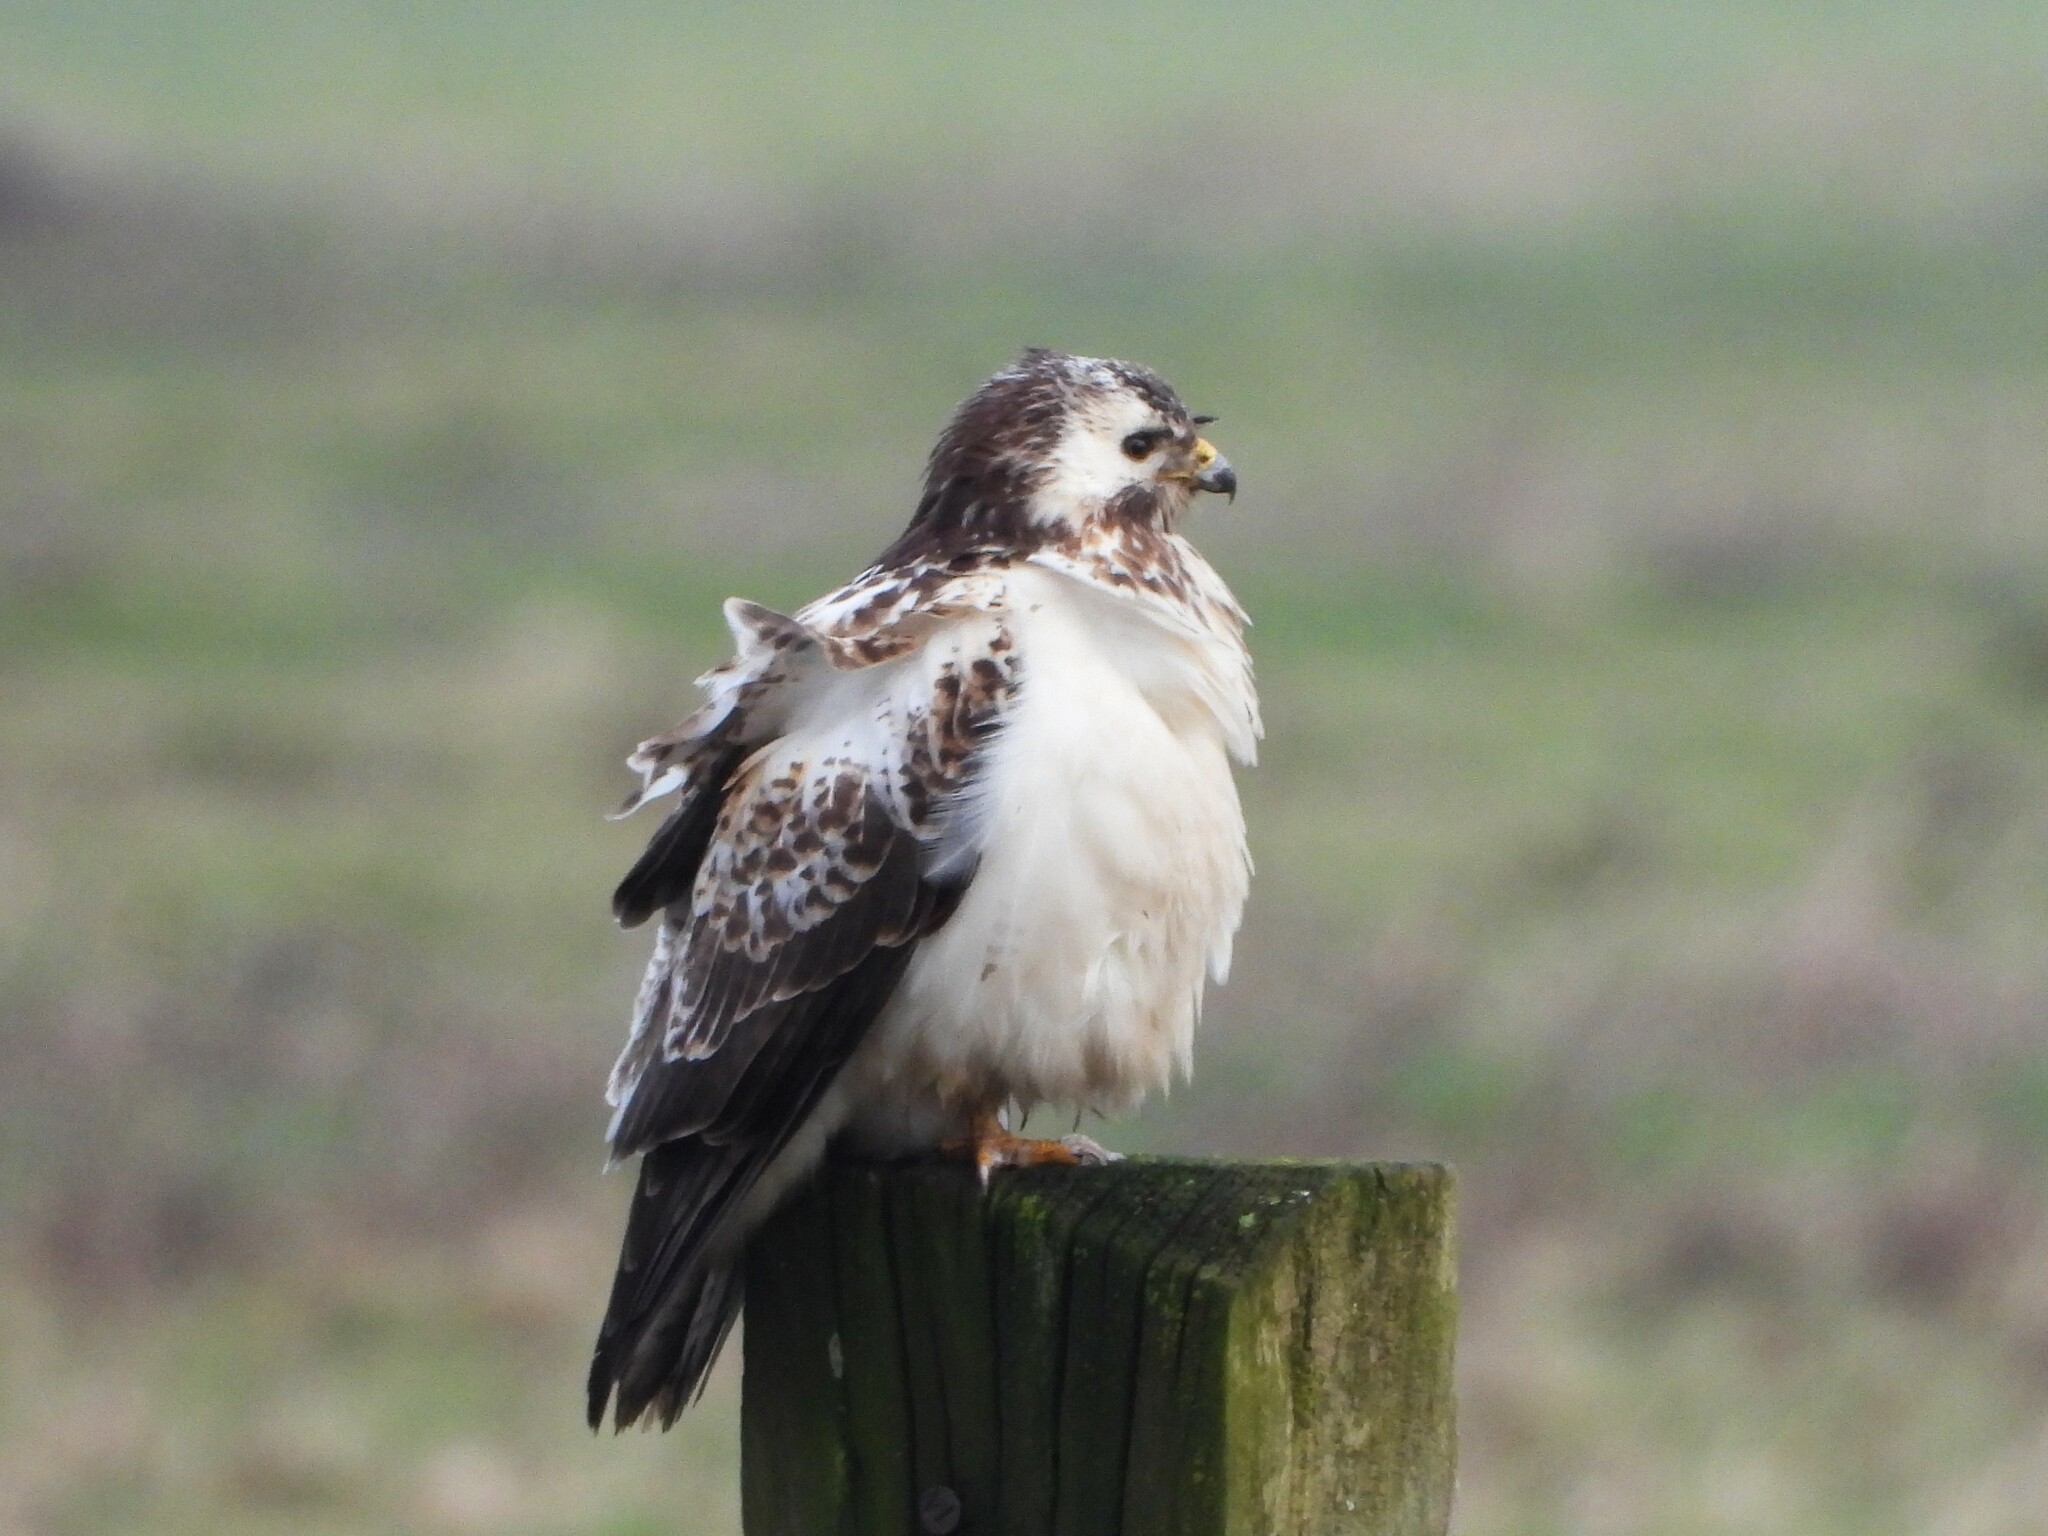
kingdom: Animalia
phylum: Chordata
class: Aves
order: Accipitriformes
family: Accipitridae
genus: Buteo
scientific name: Buteo buteo
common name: Common buzzard
